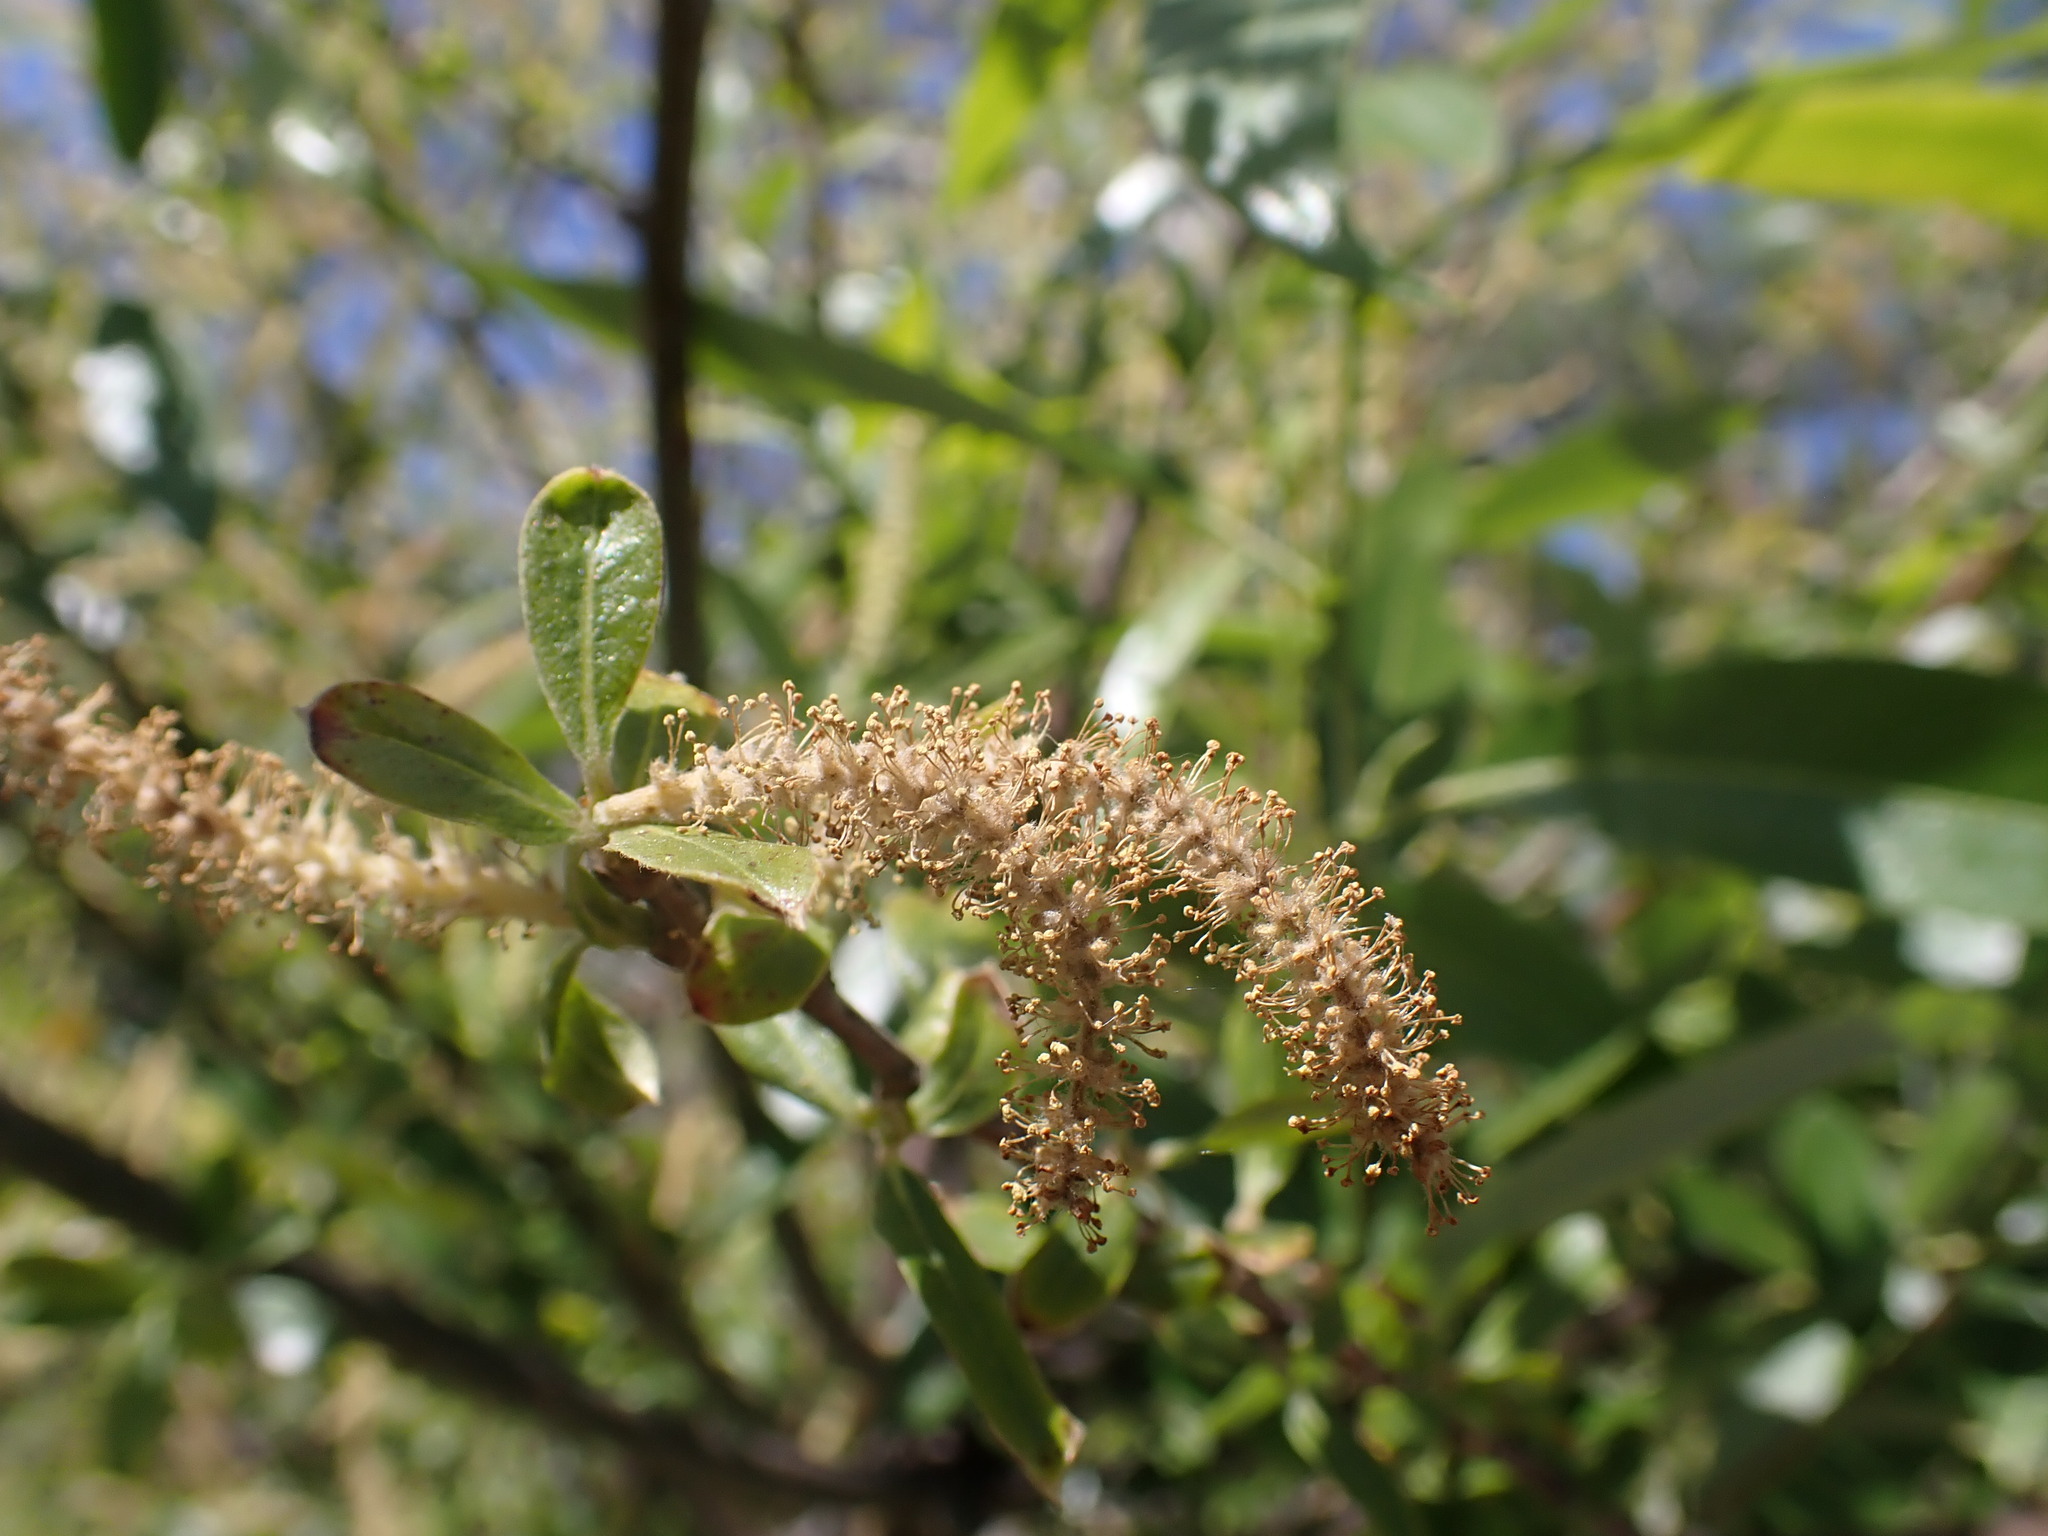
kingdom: Plantae
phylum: Tracheophyta
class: Magnoliopsida
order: Malpighiales
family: Salicaceae
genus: Salix
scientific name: Salix laevigata
